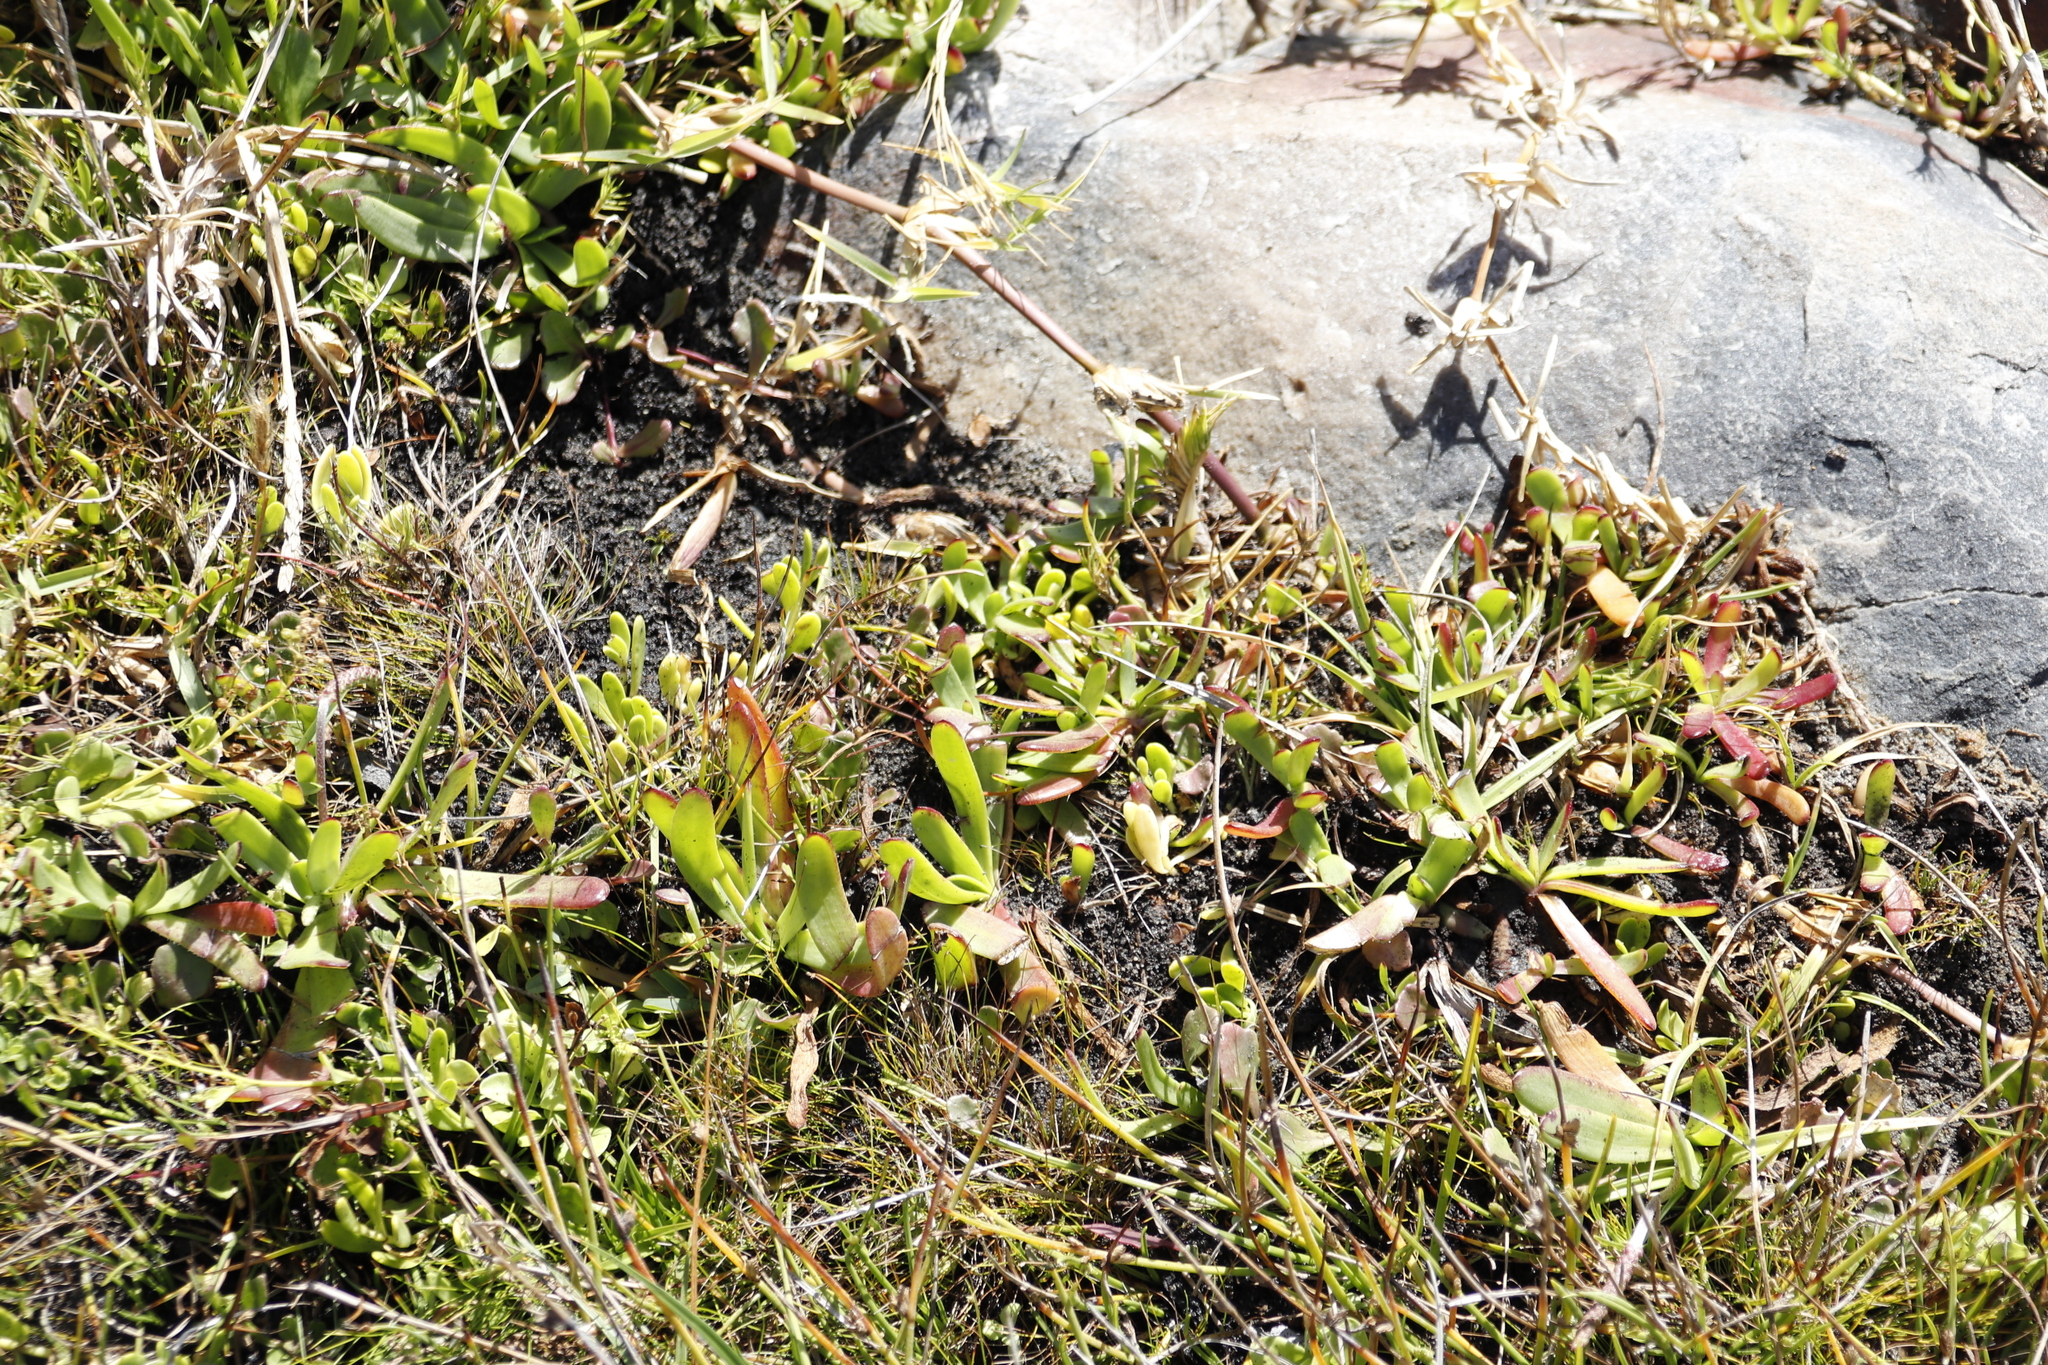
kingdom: Plantae
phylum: Tracheophyta
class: Magnoliopsida
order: Lamiales
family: Plantaginaceae
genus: Plantago
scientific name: Plantago carnosa
